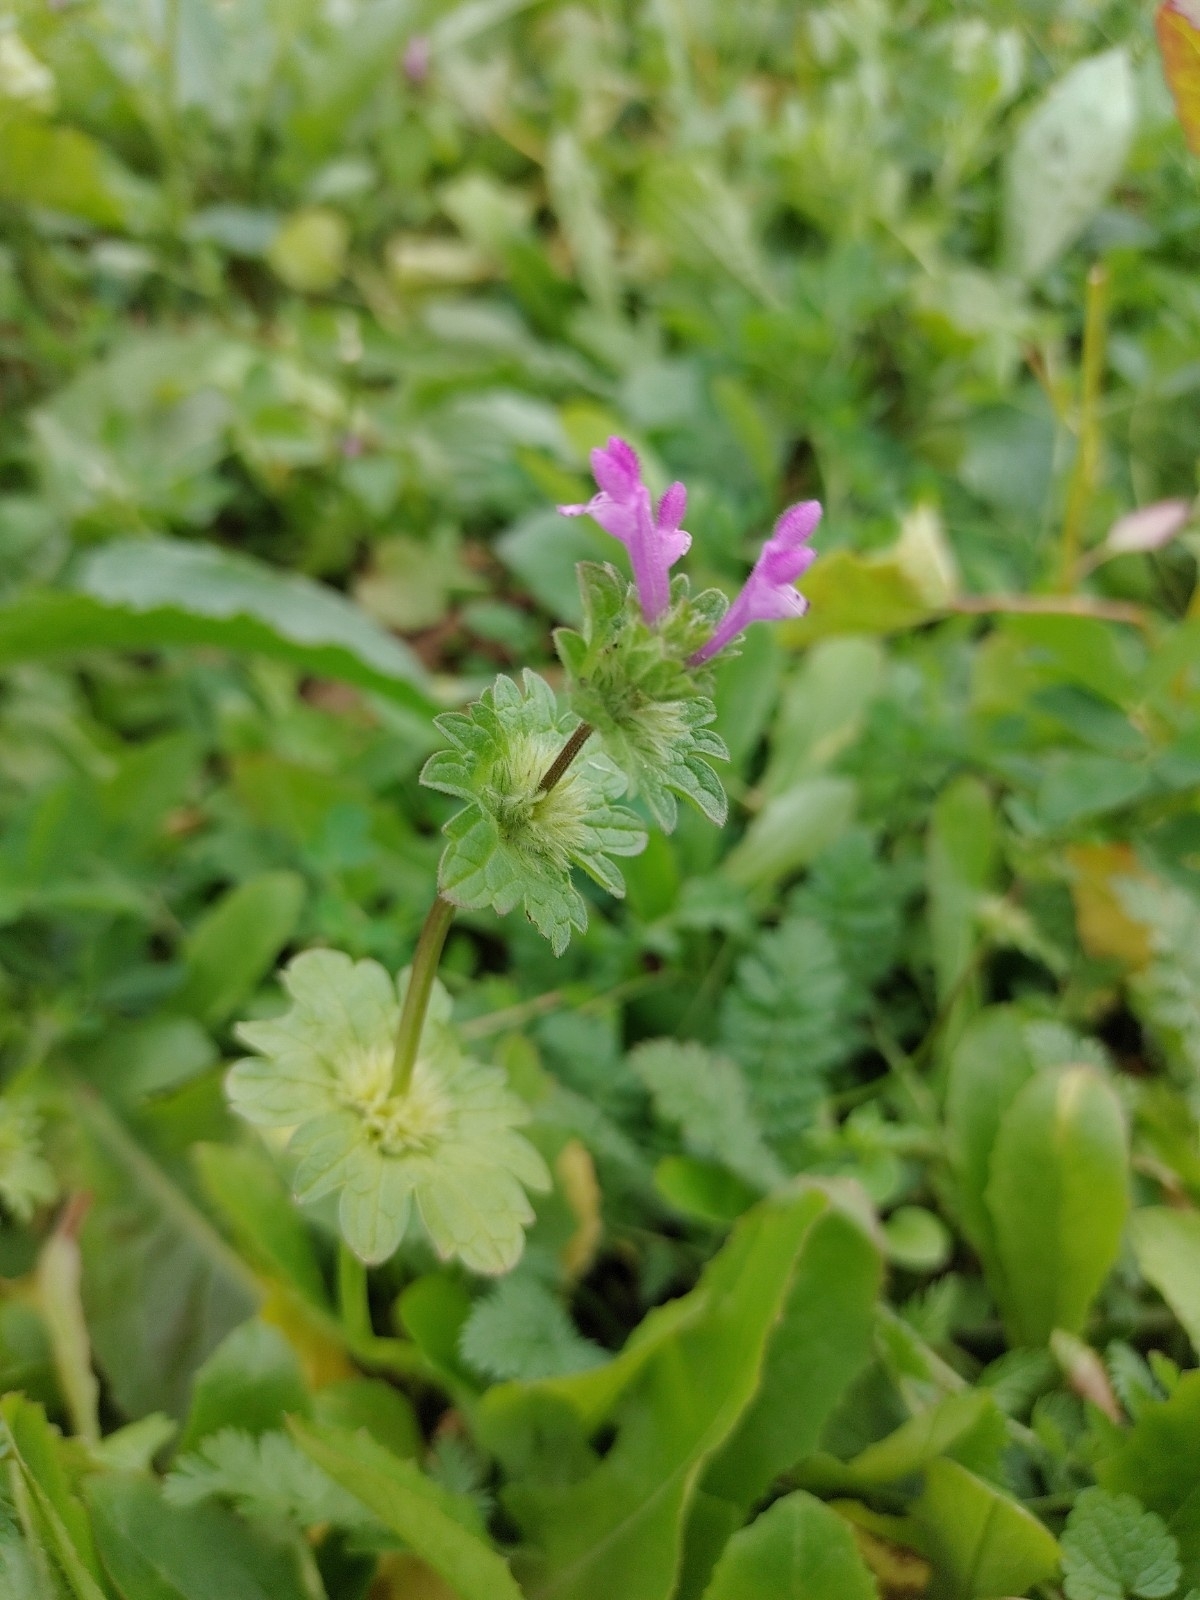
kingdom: Plantae
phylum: Tracheophyta
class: Magnoliopsida
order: Lamiales
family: Lamiaceae
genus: Lamium
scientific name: Lamium amplexicaule
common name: Henbit dead-nettle
